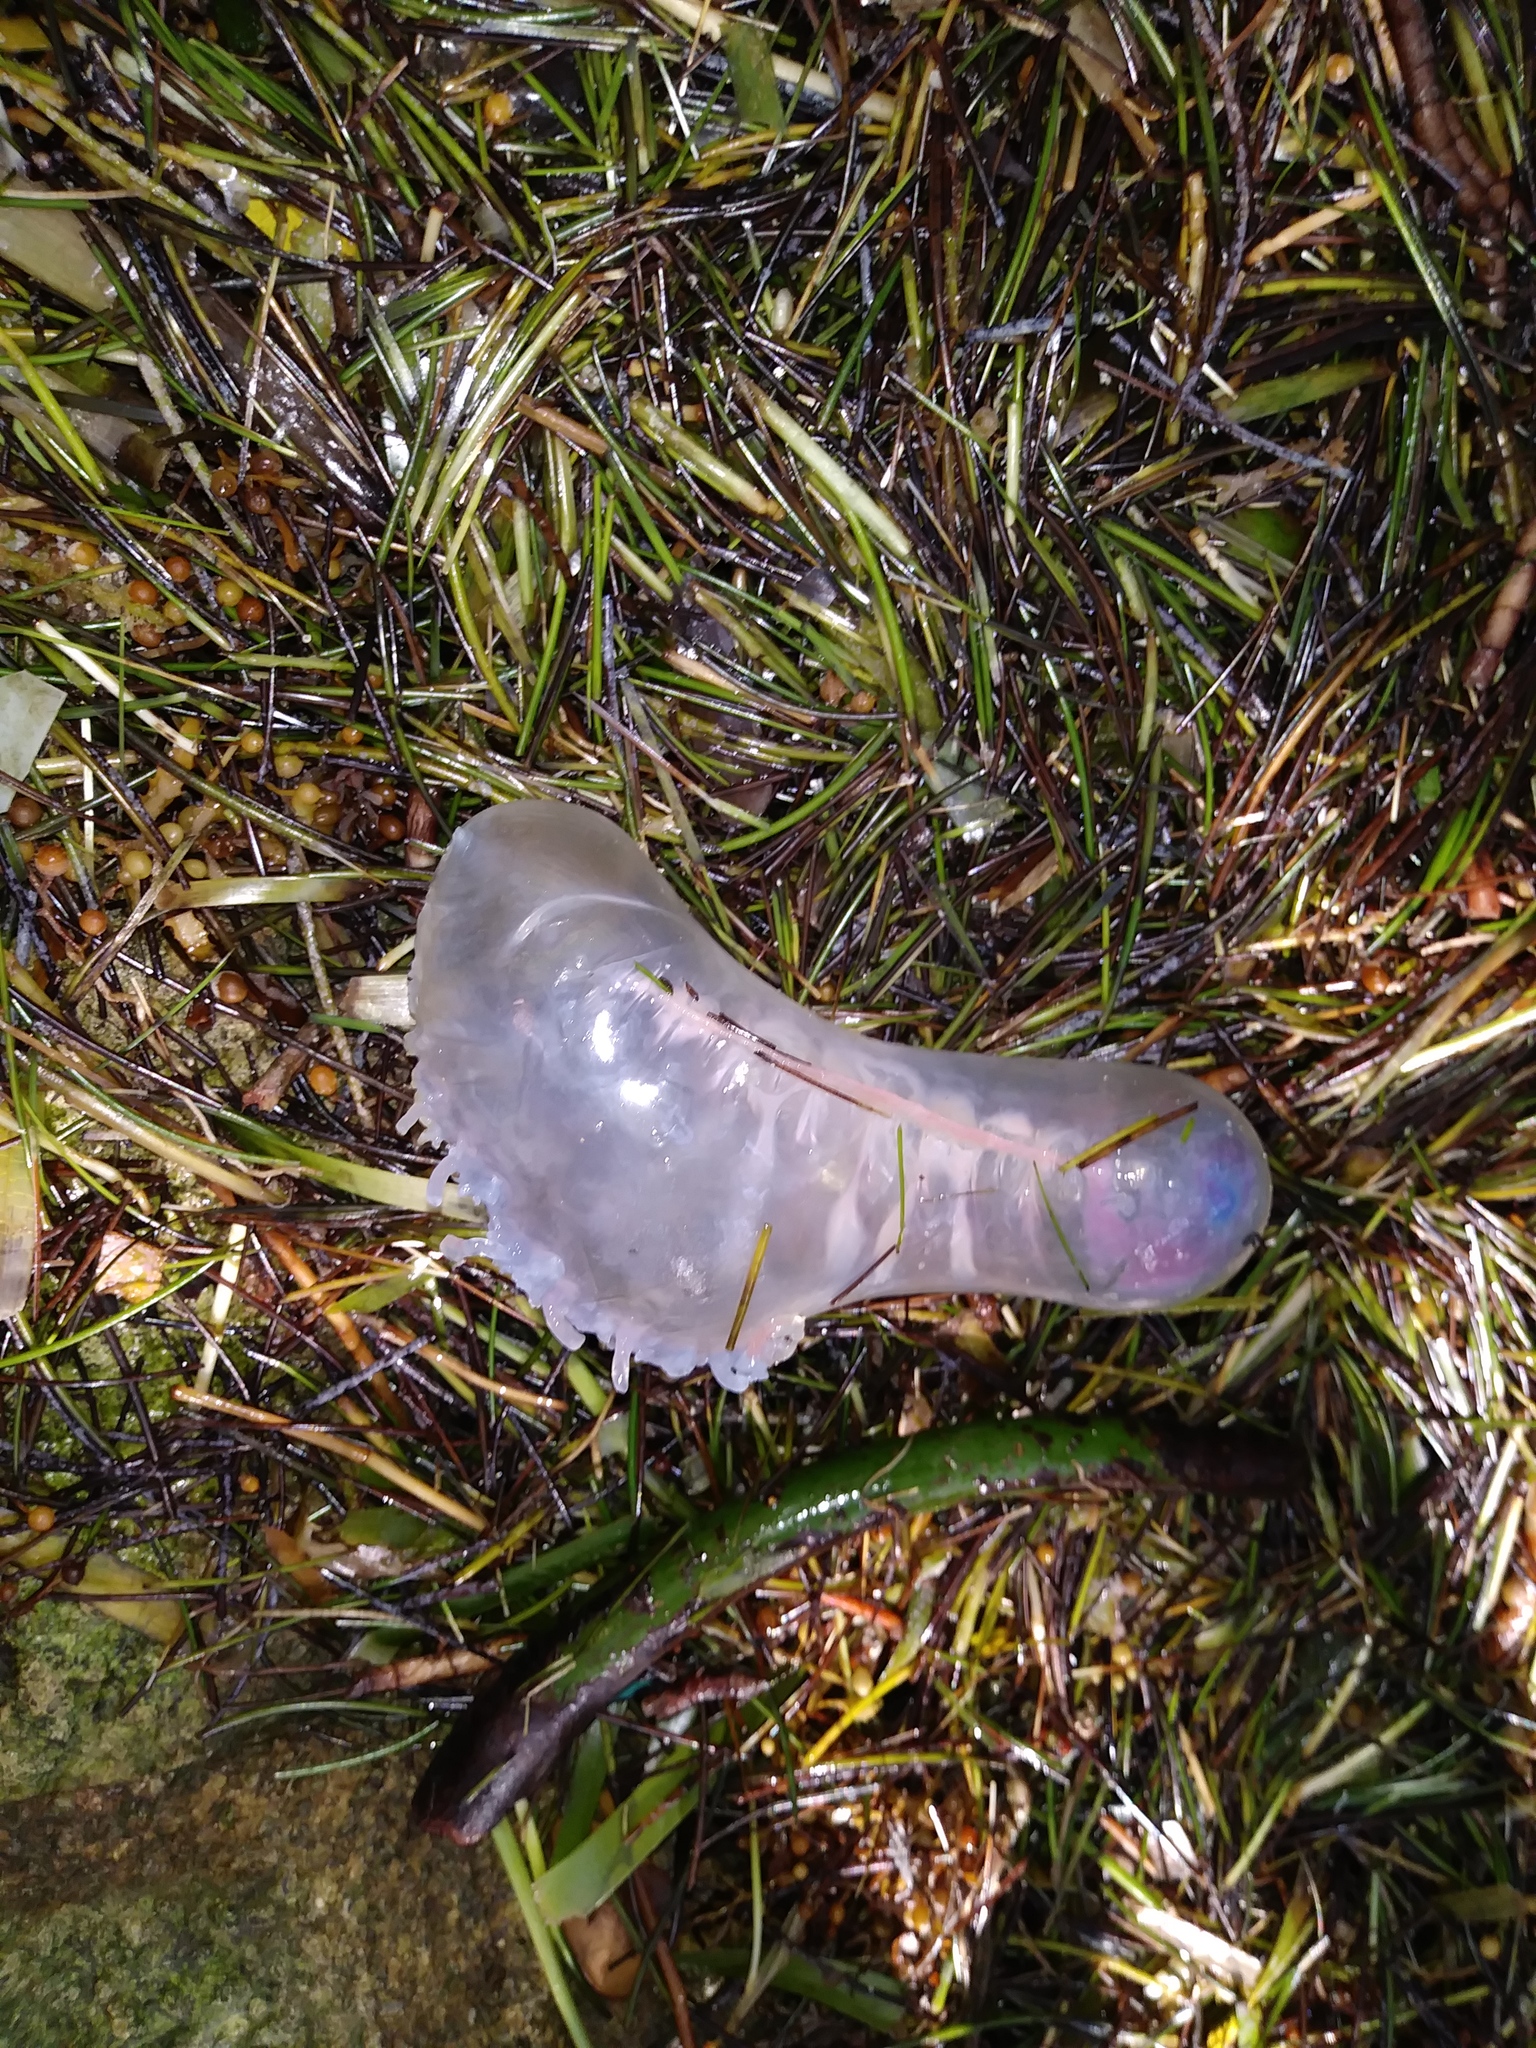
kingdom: Animalia
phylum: Cnidaria
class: Hydrozoa
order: Siphonophorae
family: Physaliidae
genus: Physalia
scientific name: Physalia physalis
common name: Portuguese man-of-war
